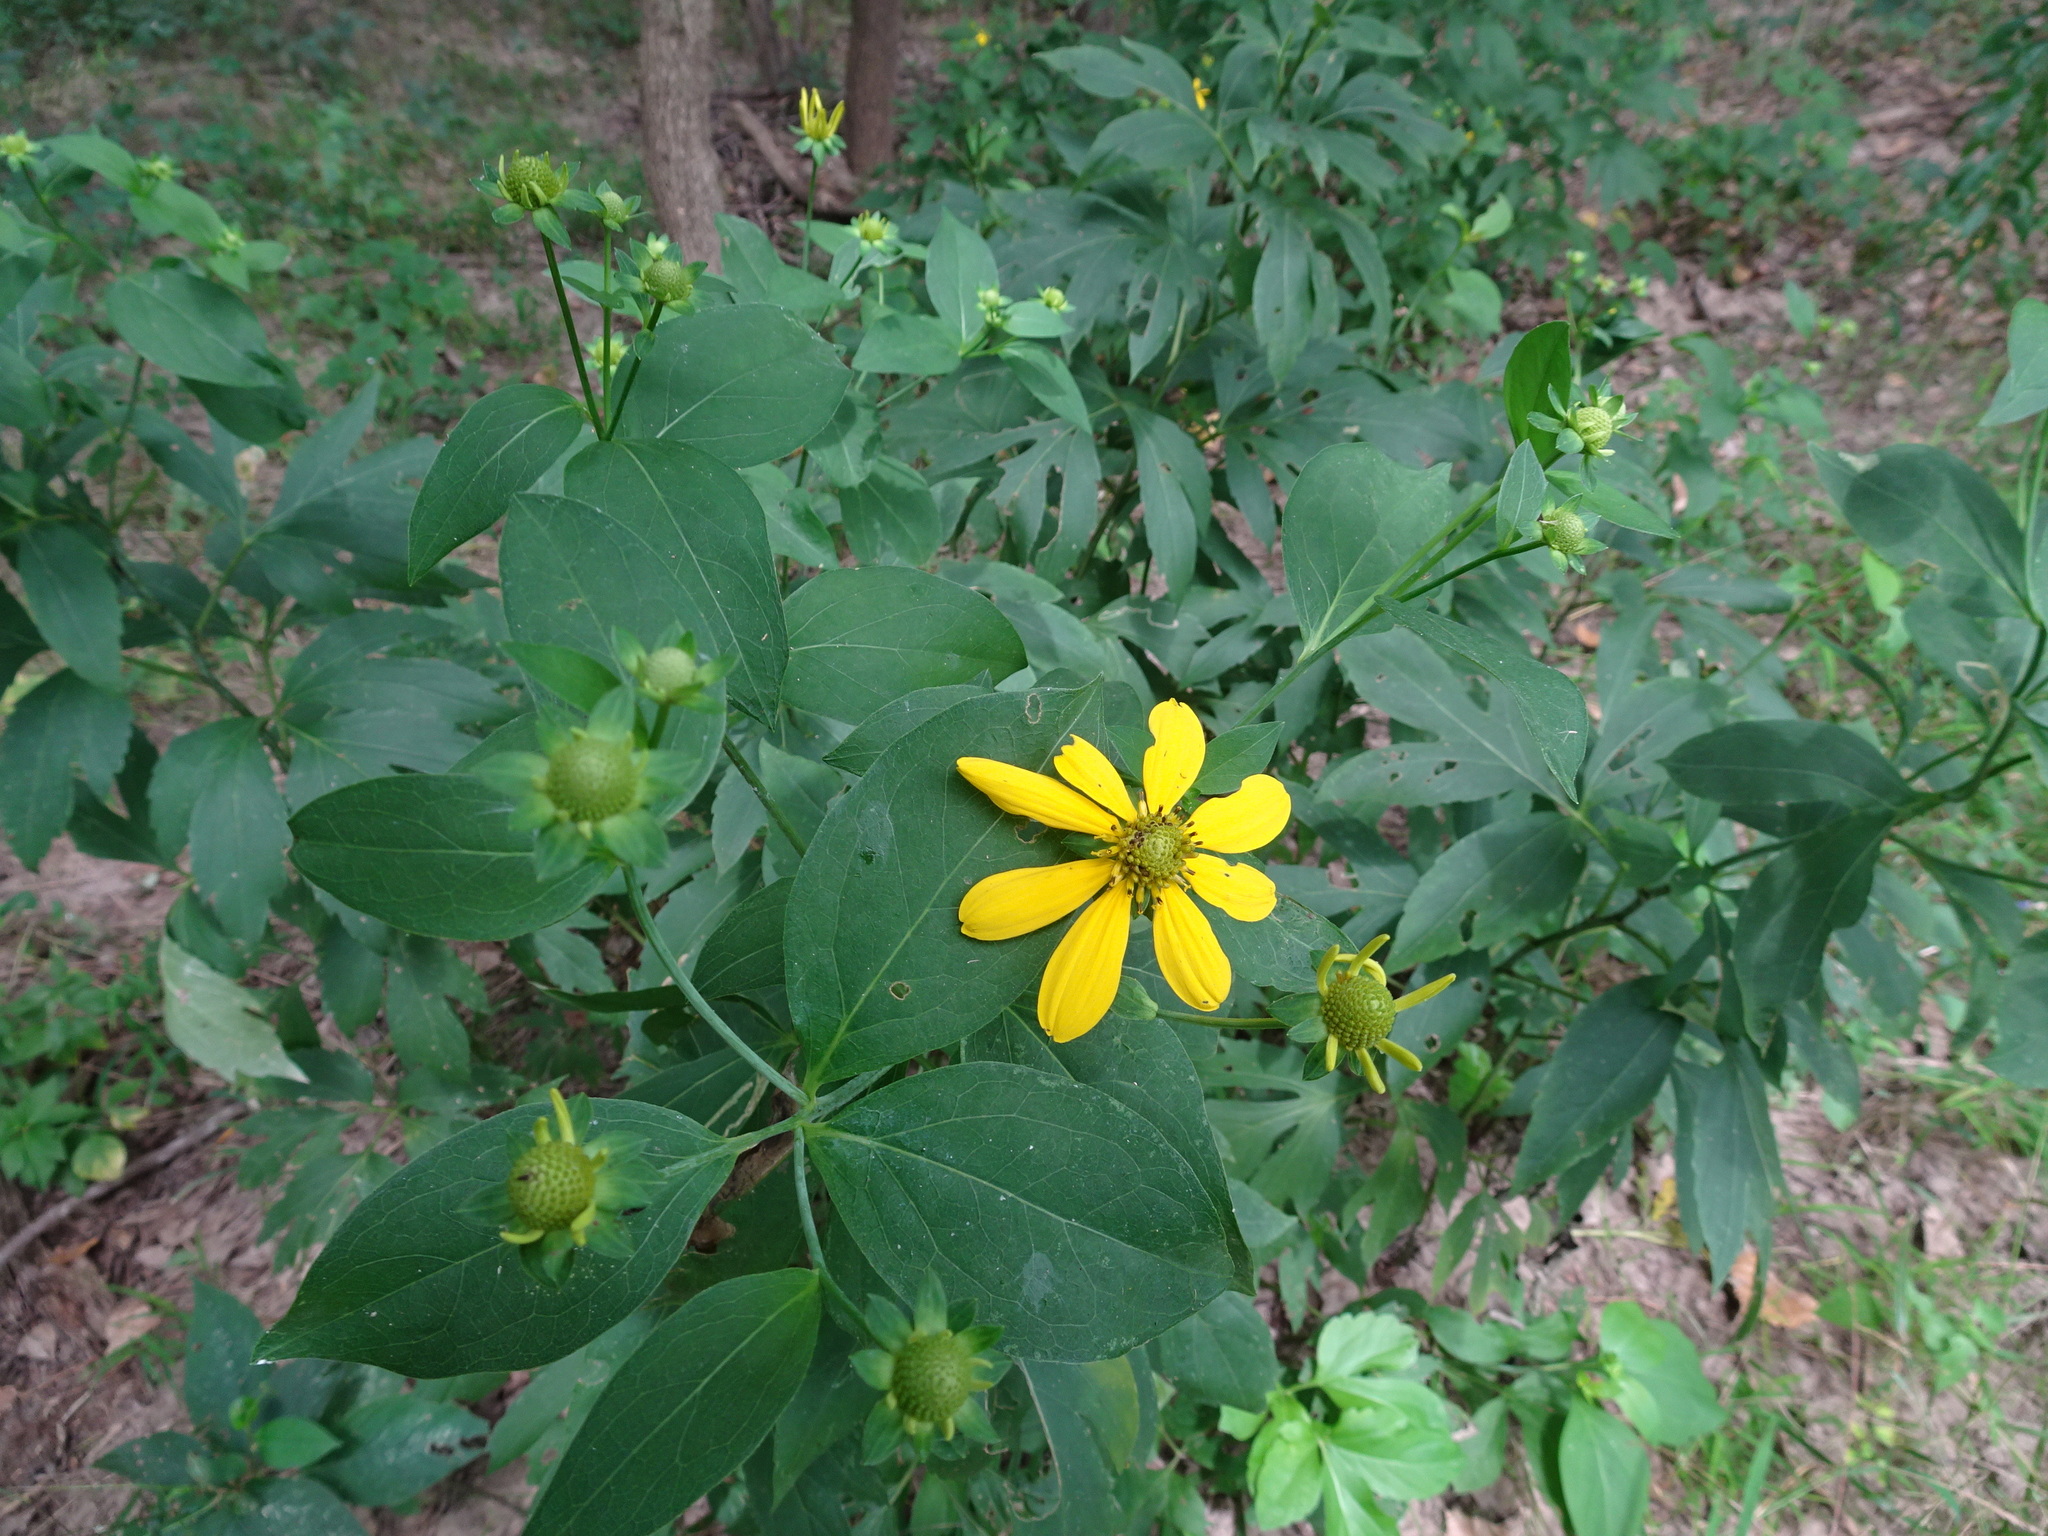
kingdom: Plantae
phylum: Tracheophyta
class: Magnoliopsida
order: Asterales
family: Asteraceae
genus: Rudbeckia
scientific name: Rudbeckia laciniata
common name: Coneflower
